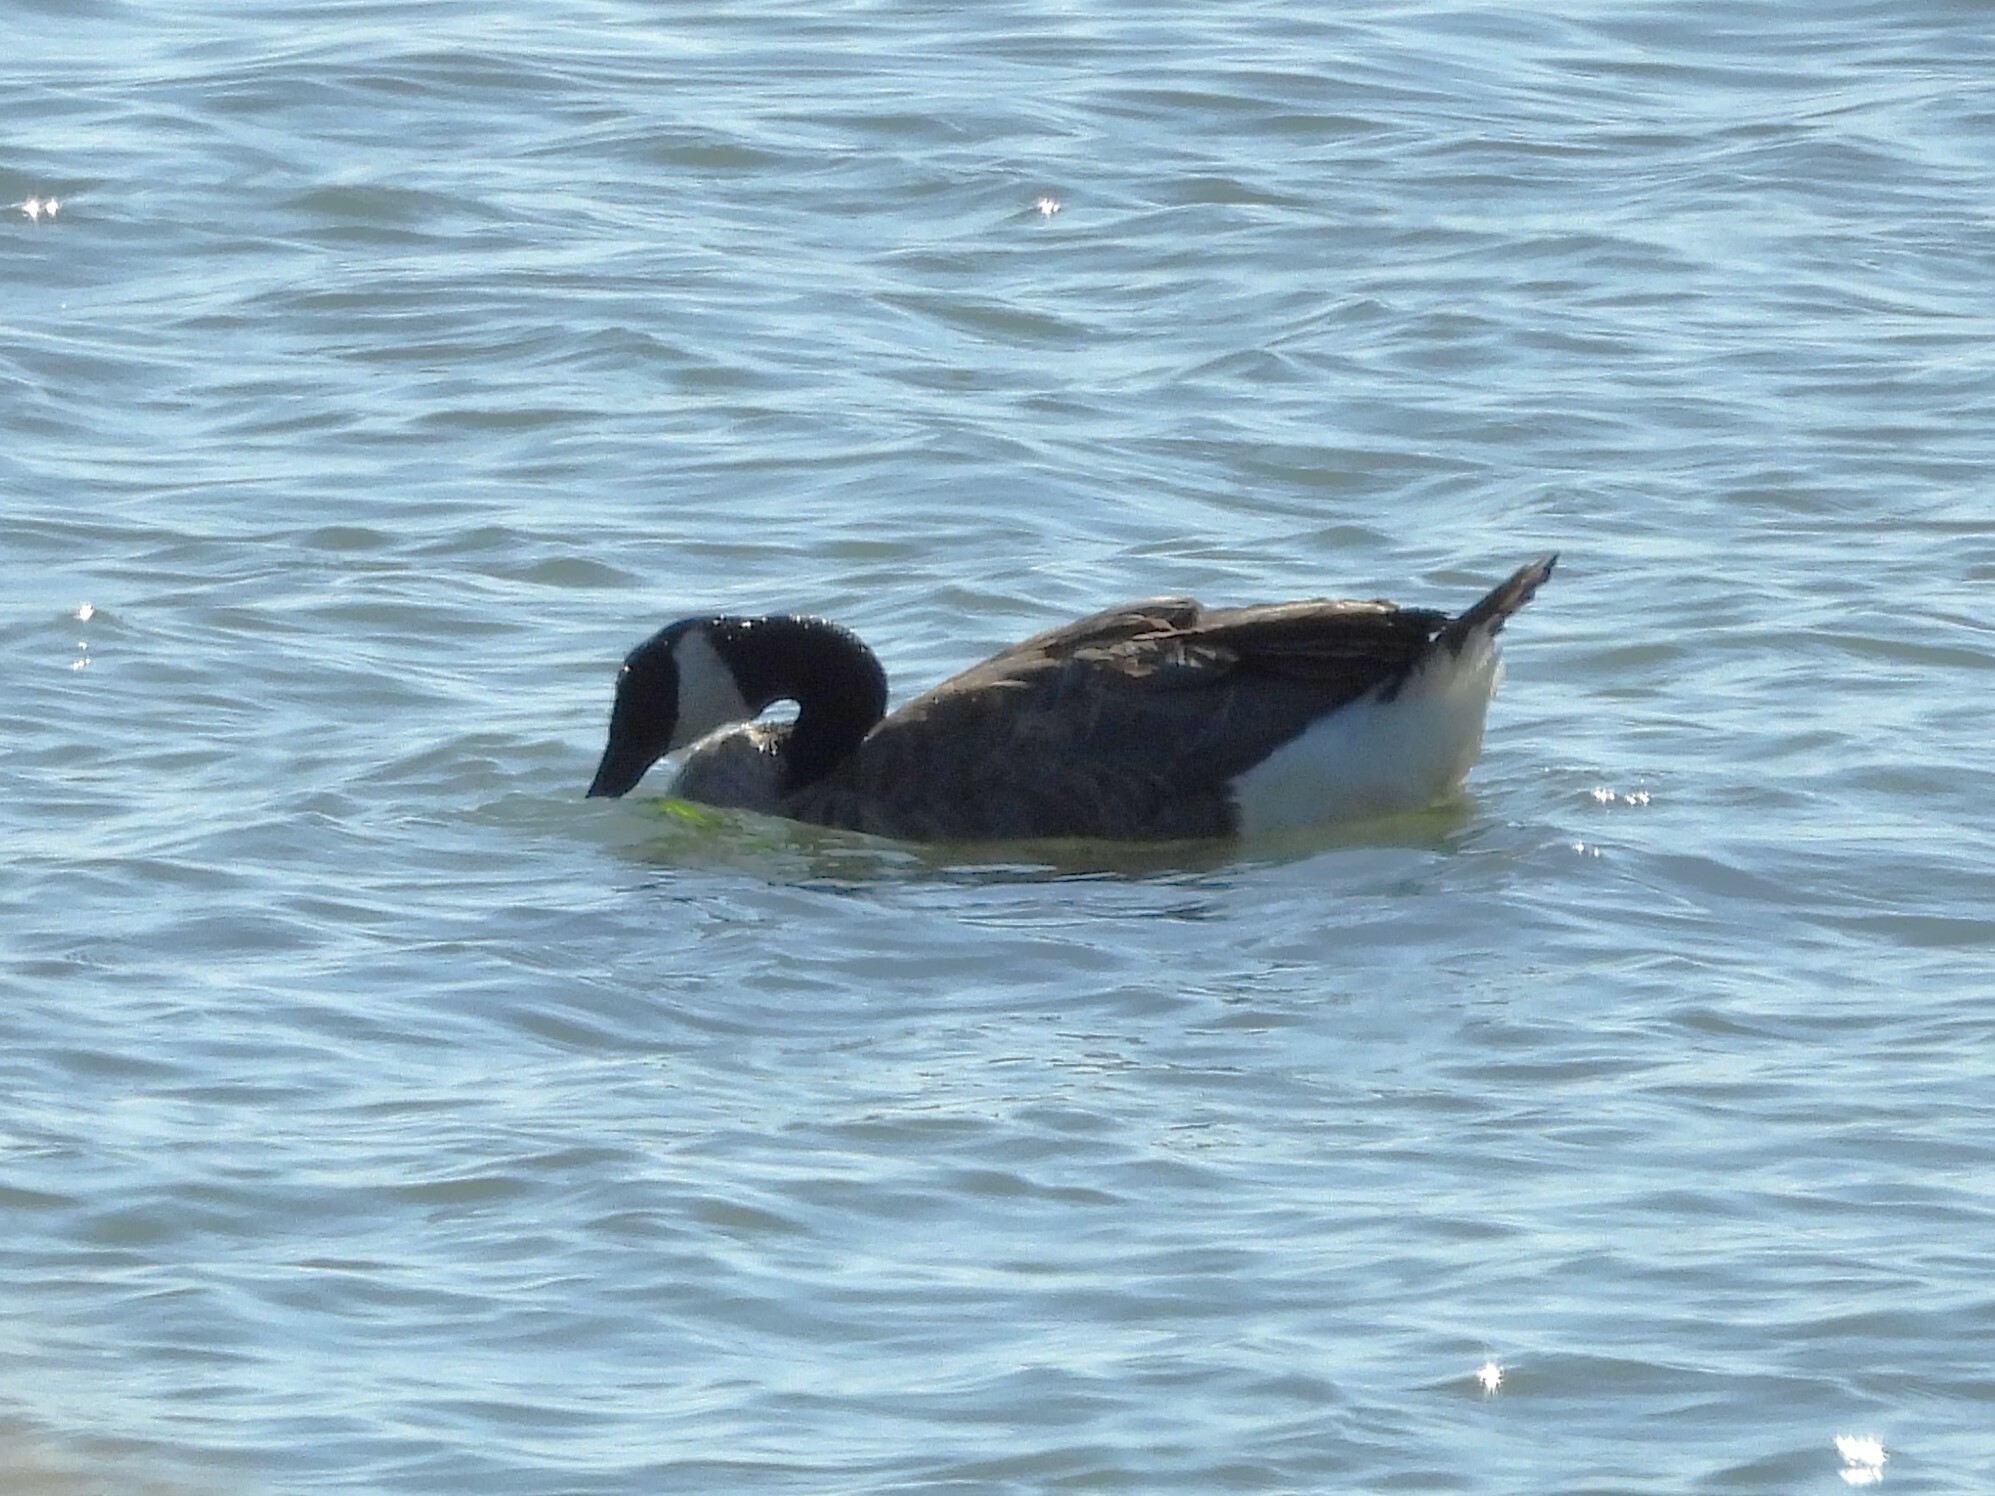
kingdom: Animalia
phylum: Chordata
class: Aves
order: Anseriformes
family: Anatidae
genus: Branta
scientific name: Branta canadensis
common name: Canada goose
